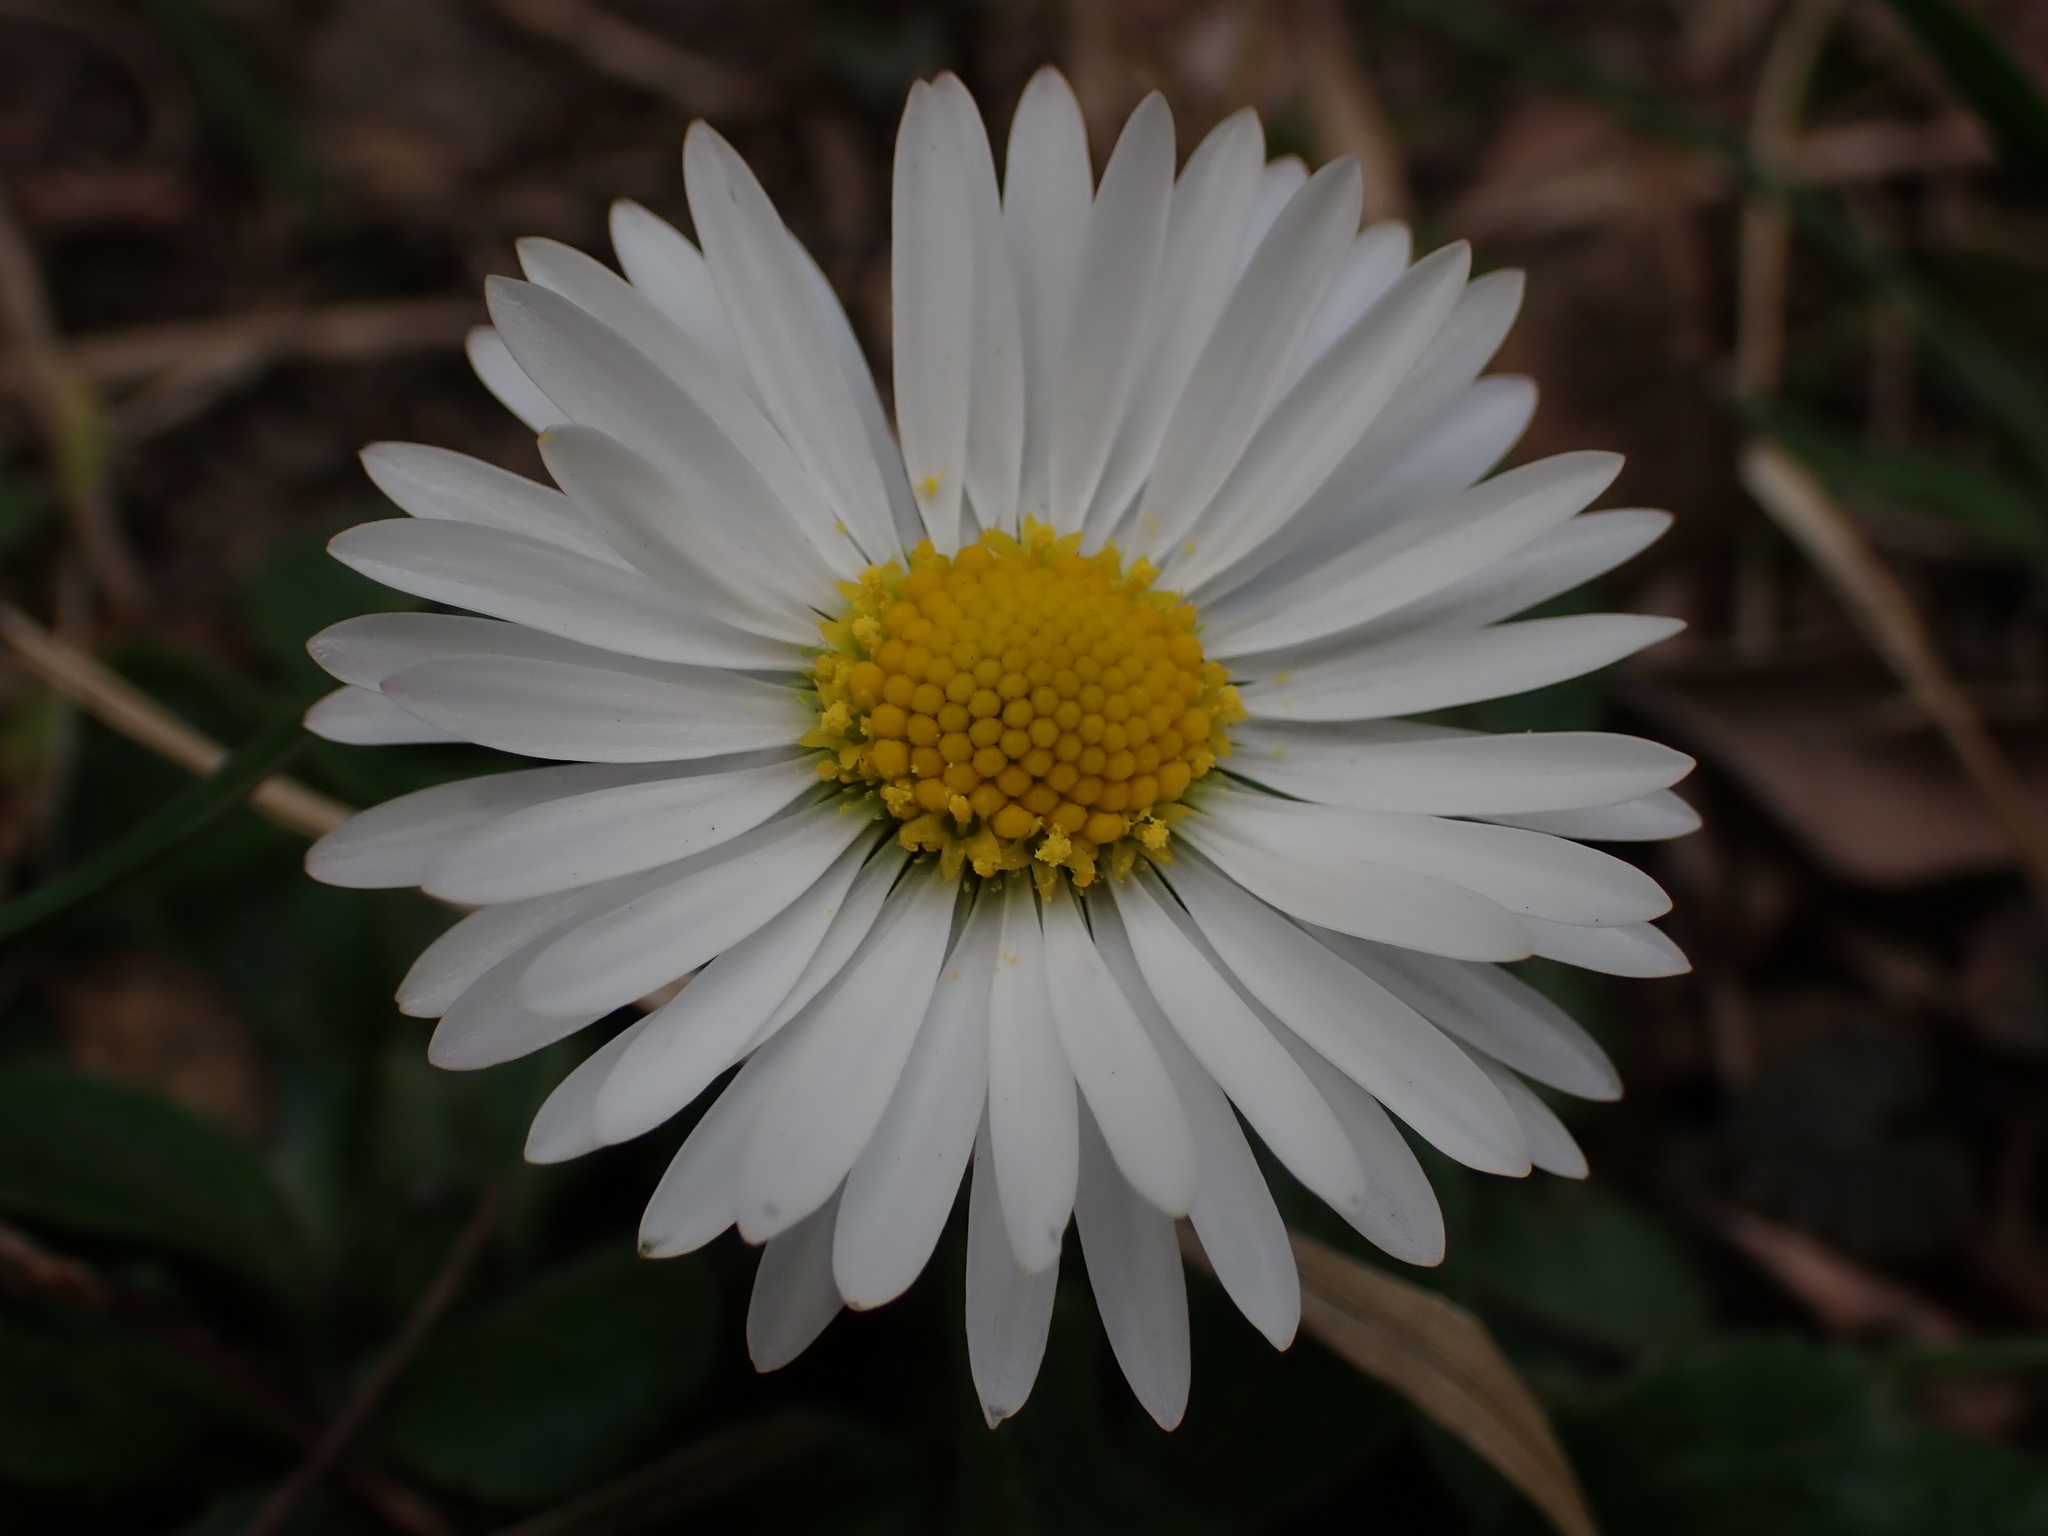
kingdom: Plantae
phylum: Tracheophyta
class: Magnoliopsida
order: Asterales
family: Asteraceae
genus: Bellis
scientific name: Bellis perennis
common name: Lawndaisy
